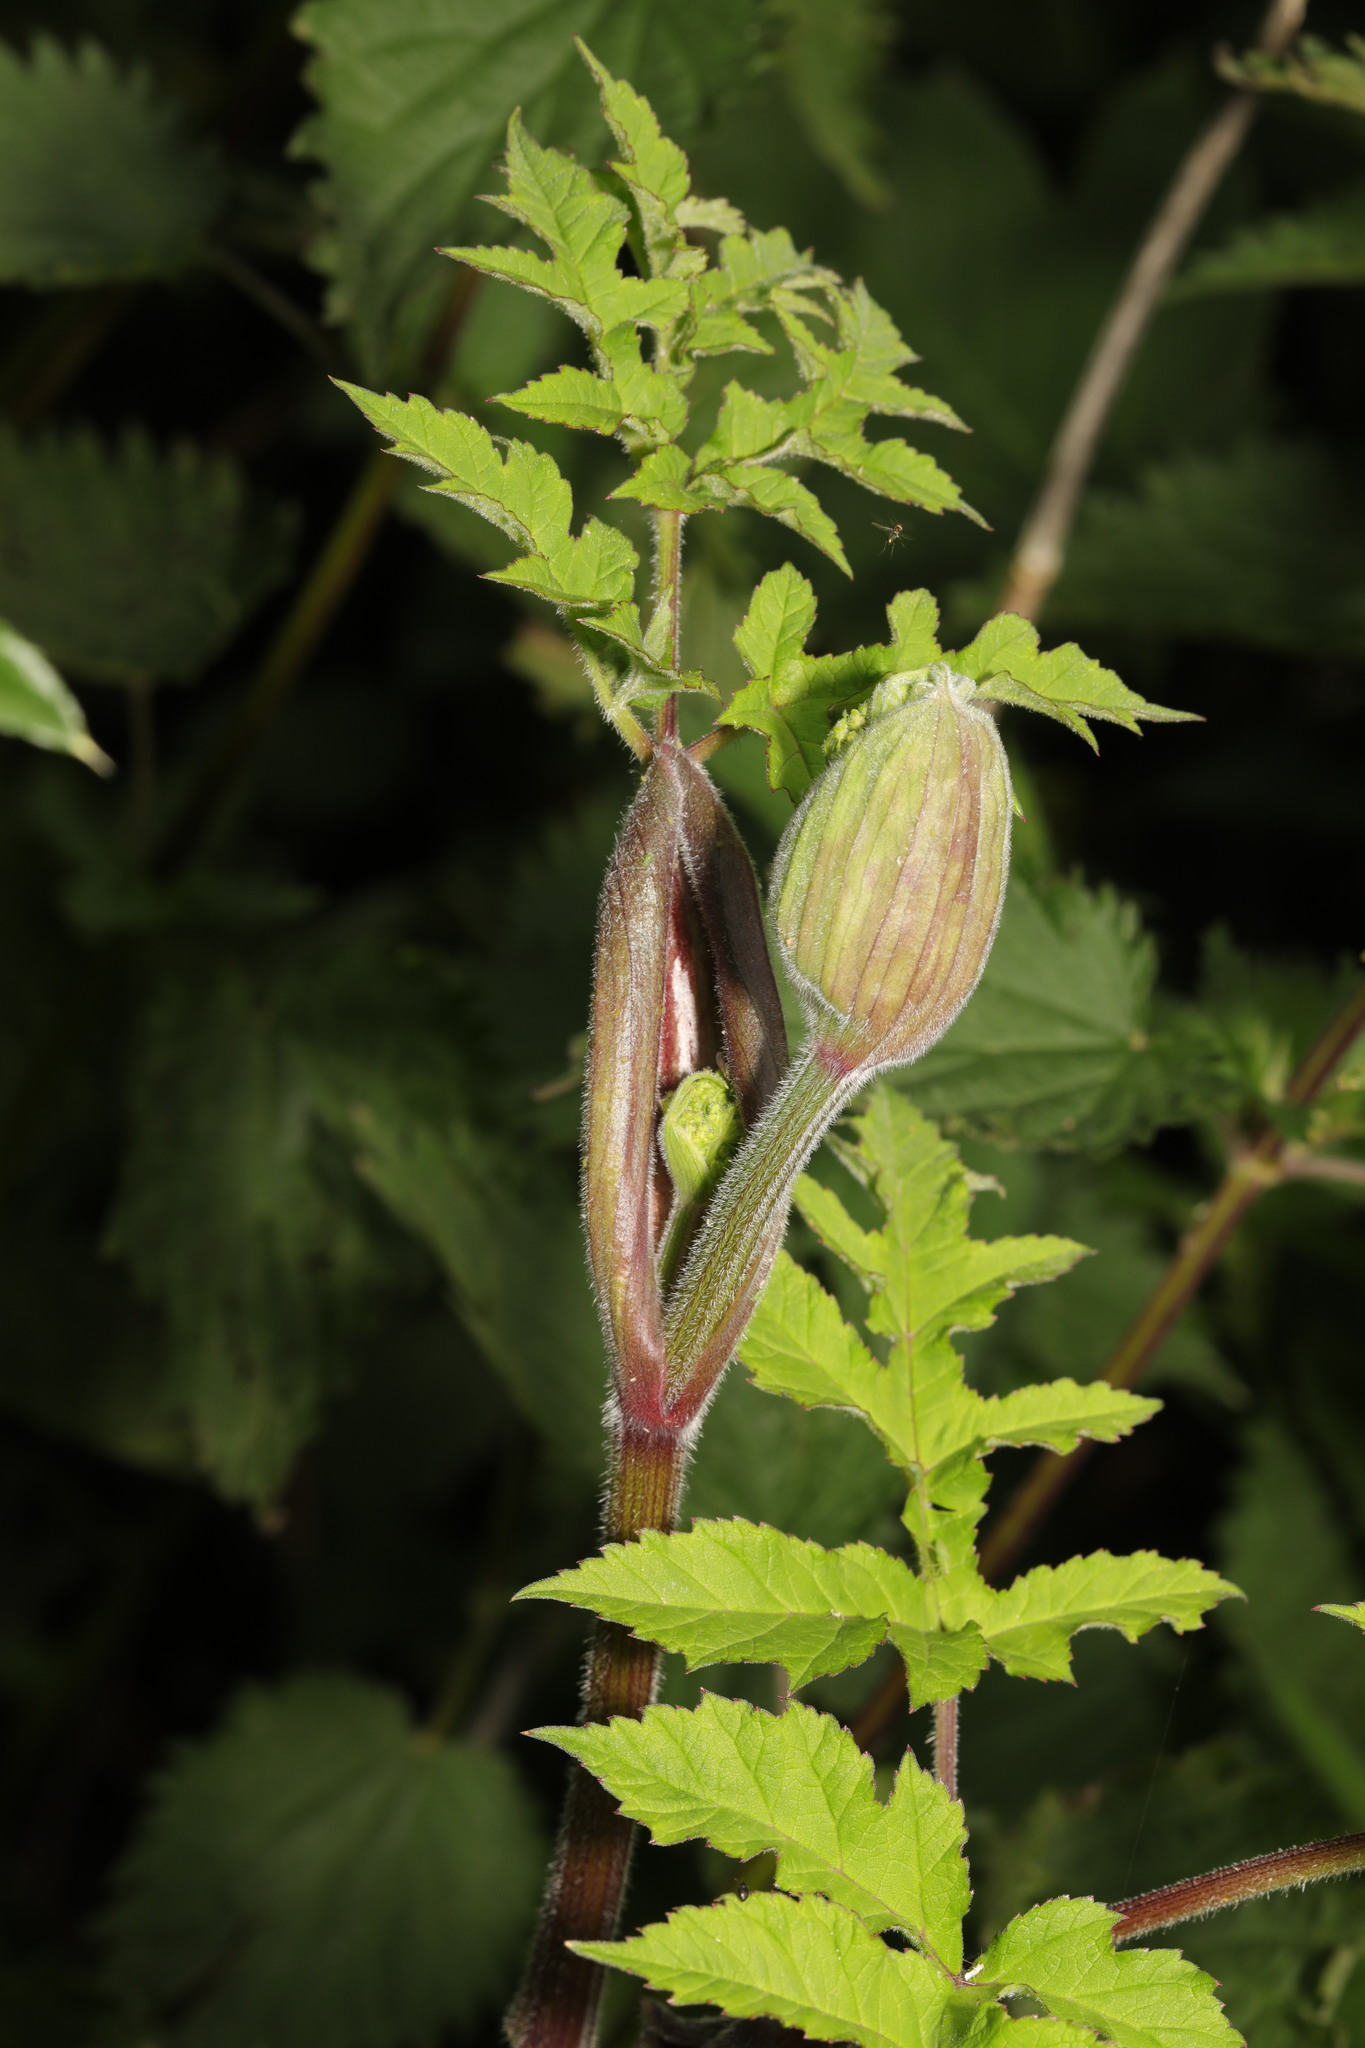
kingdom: Plantae
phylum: Tracheophyta
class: Magnoliopsida
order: Apiales
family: Apiaceae
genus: Heracleum
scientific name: Heracleum sphondylium
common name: Hogweed
